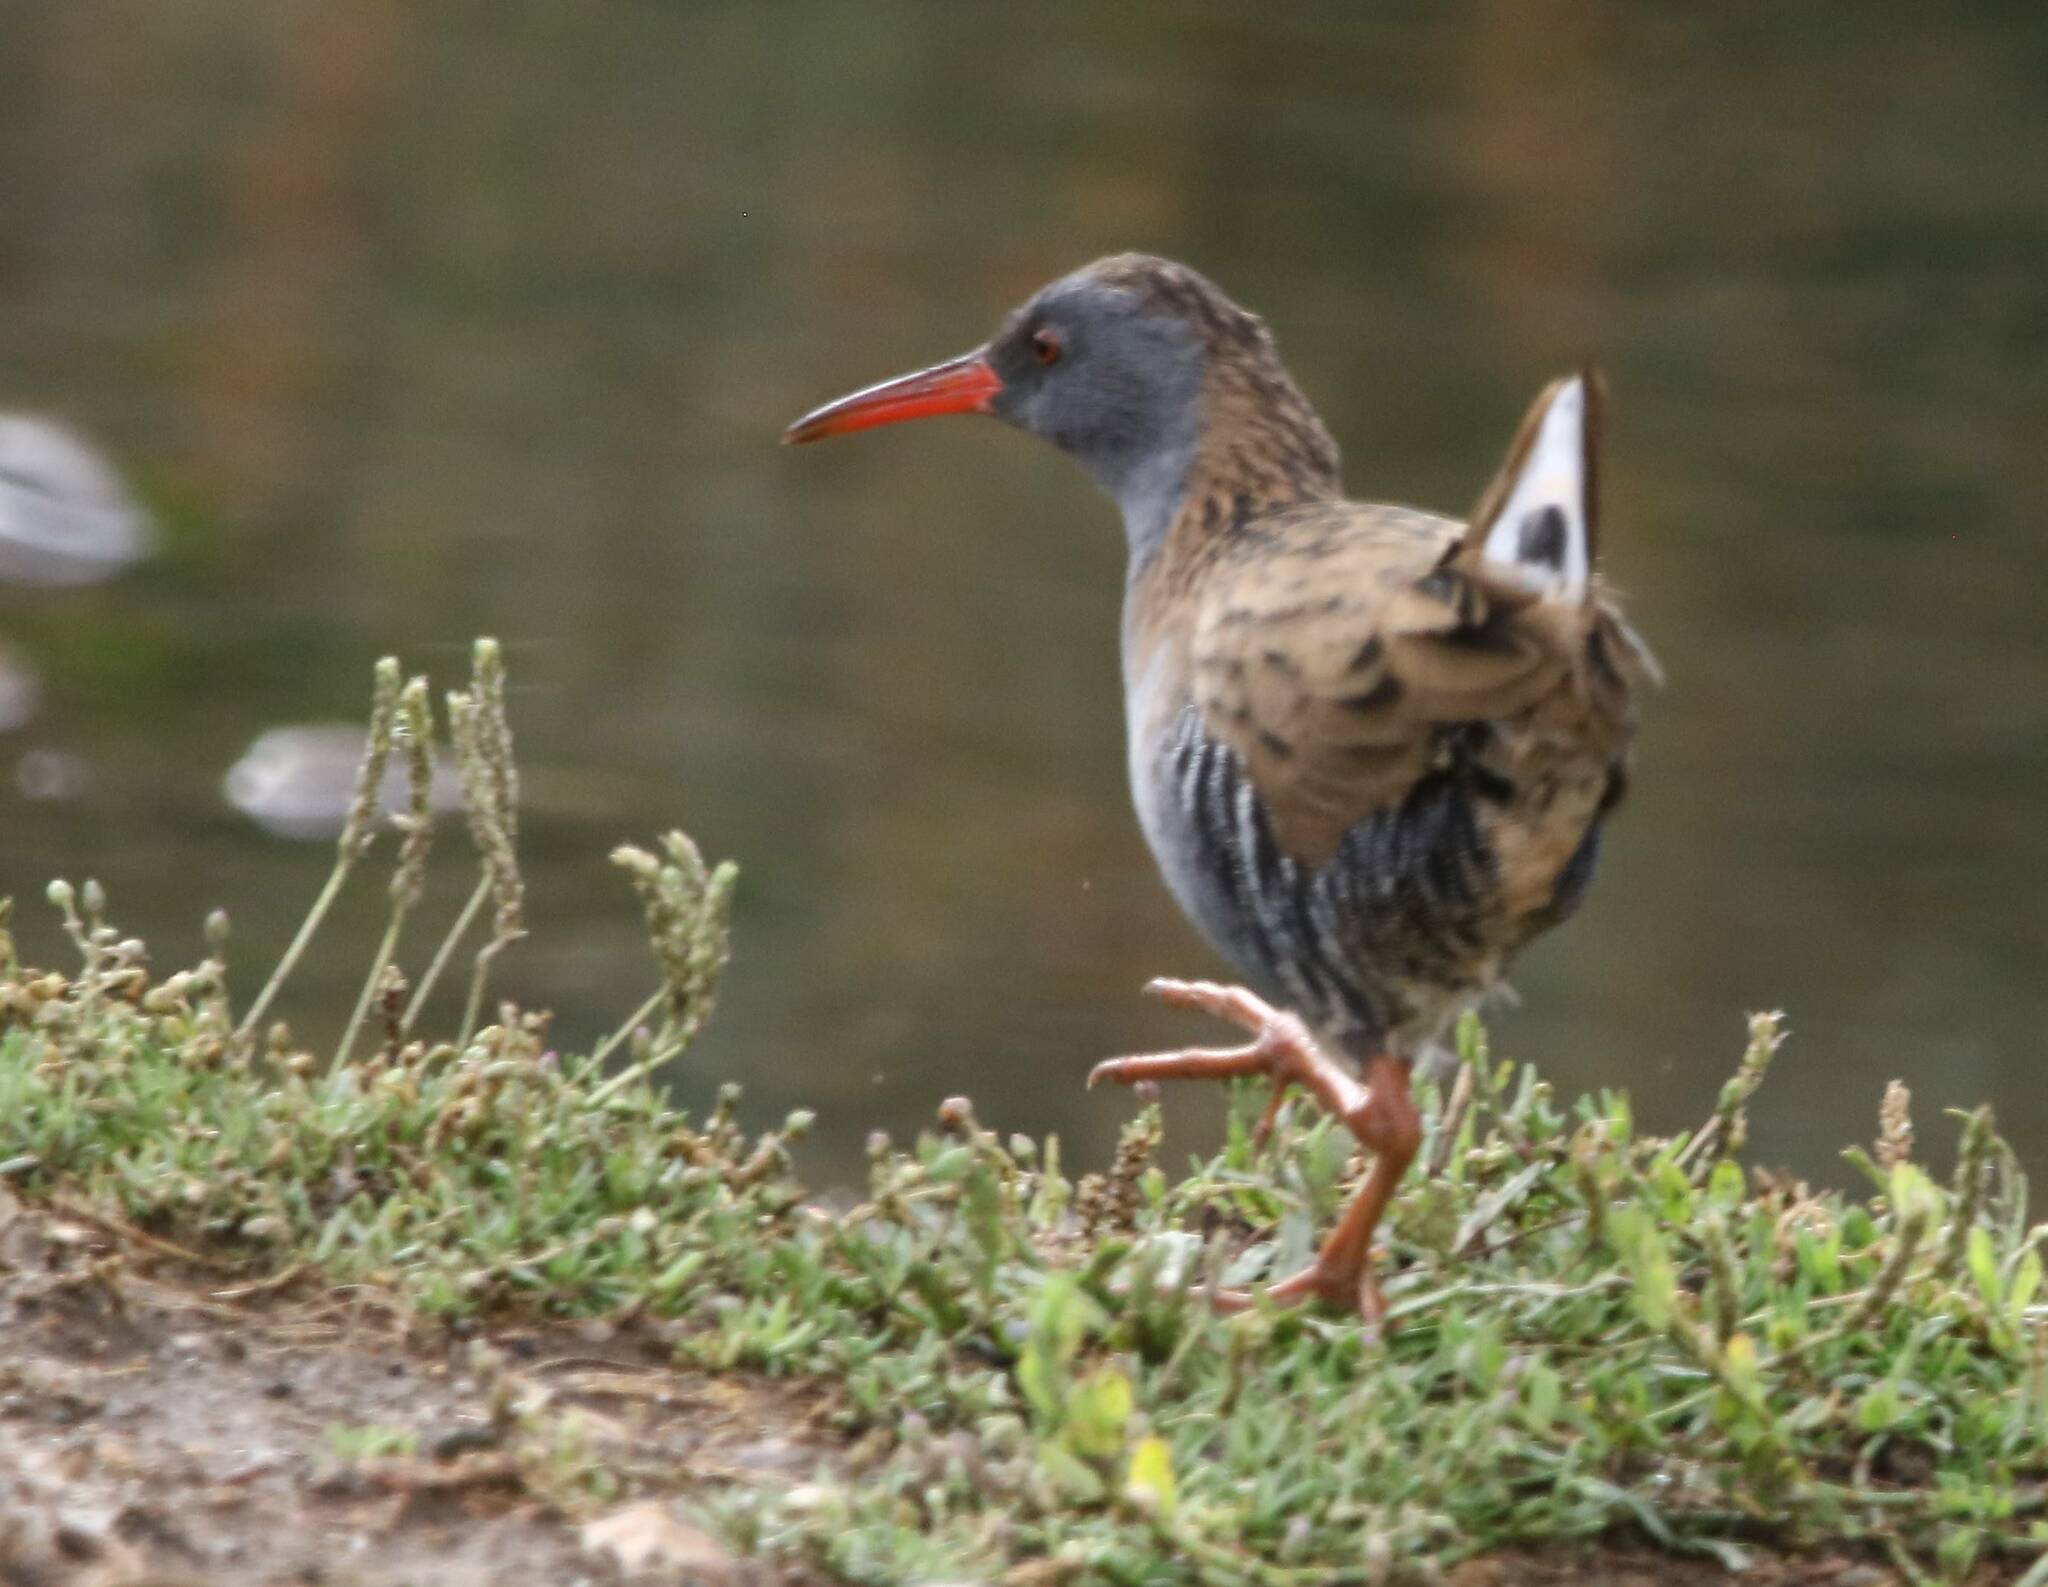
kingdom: Animalia
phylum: Chordata
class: Aves
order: Gruiformes
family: Rallidae
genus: Rallus
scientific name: Rallus aquaticus
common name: Water rail
